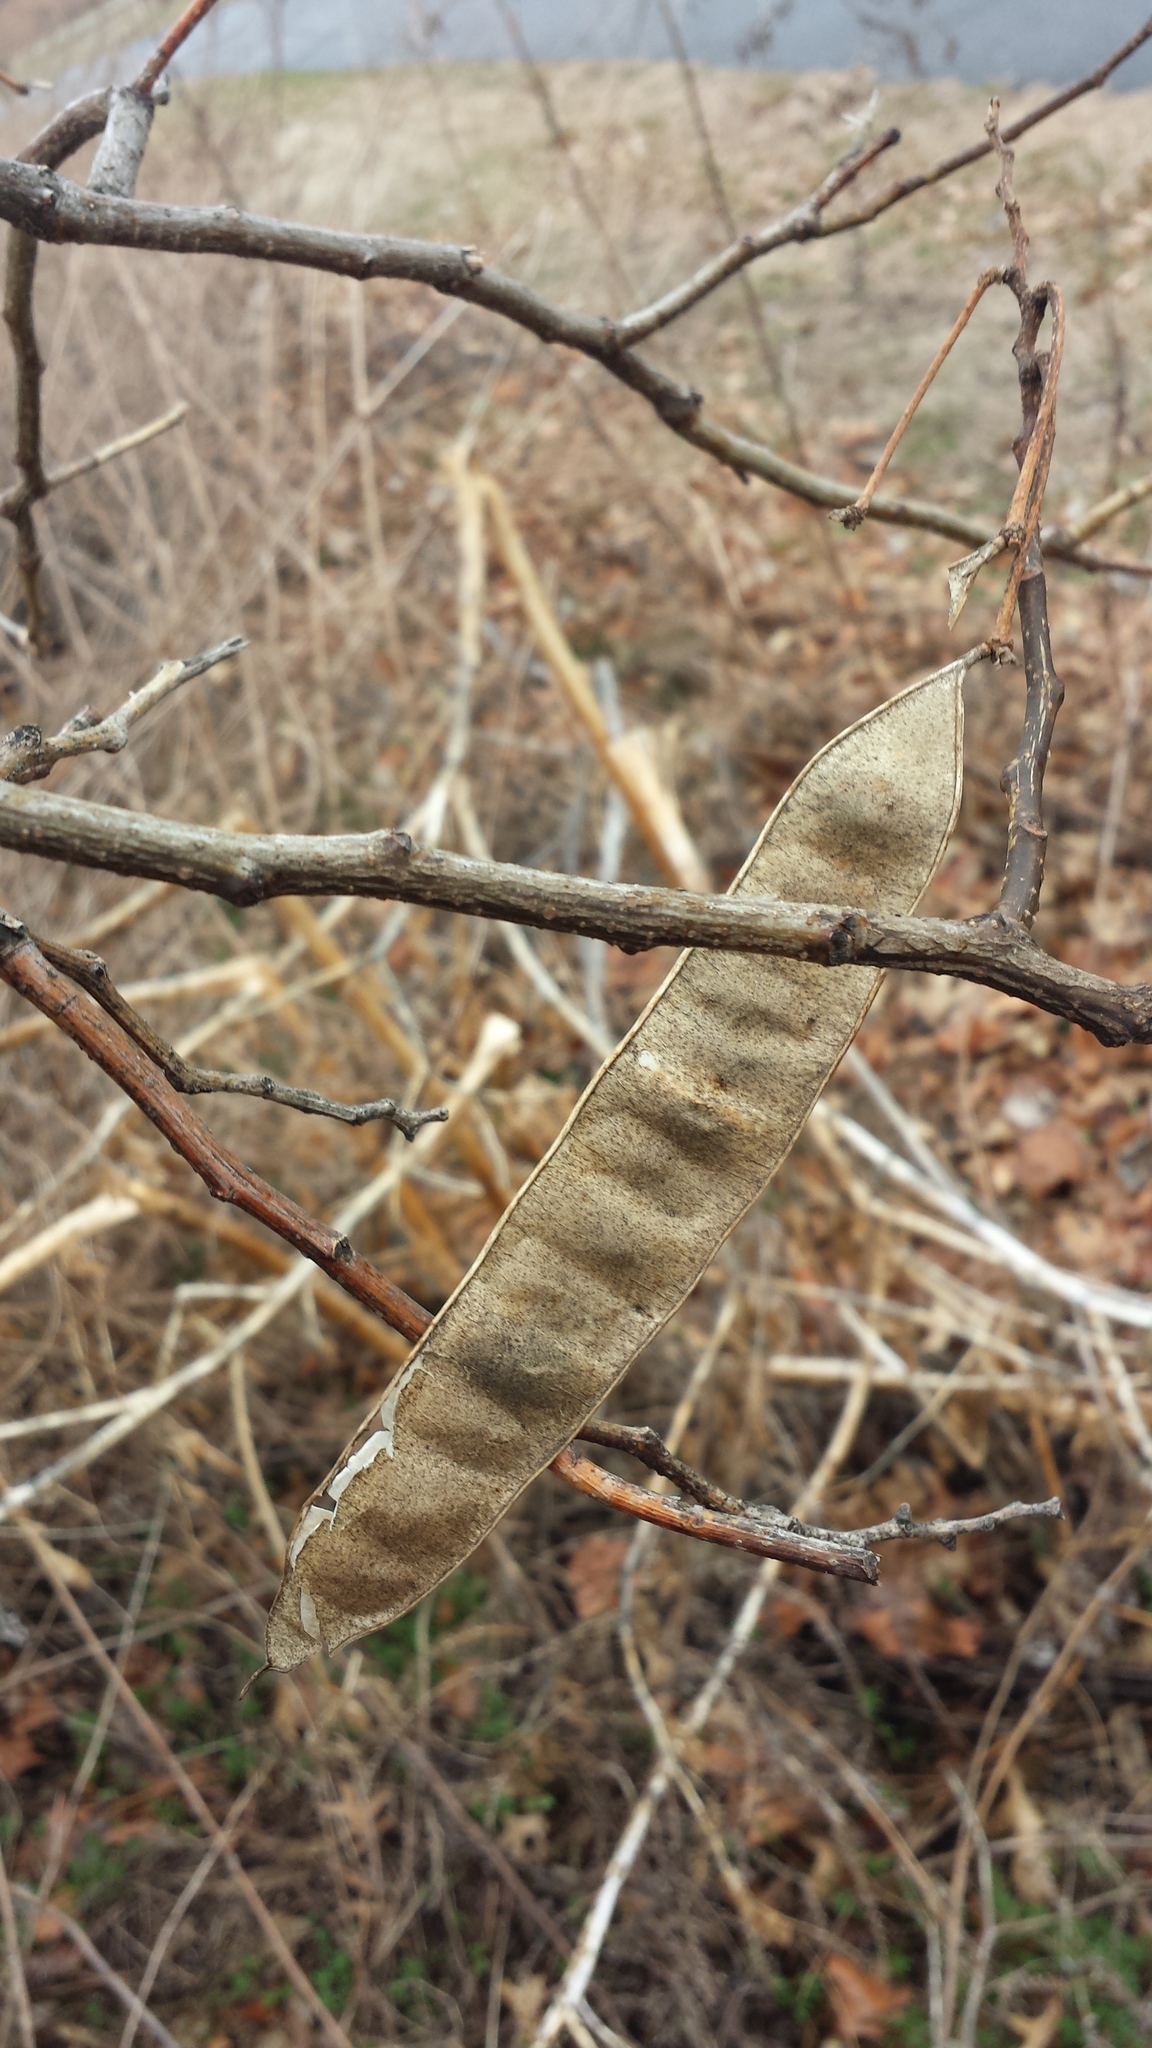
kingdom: Plantae
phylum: Tracheophyta
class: Magnoliopsida
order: Fabales
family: Fabaceae
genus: Albizia
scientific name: Albizia julibrissin
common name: Silktree
